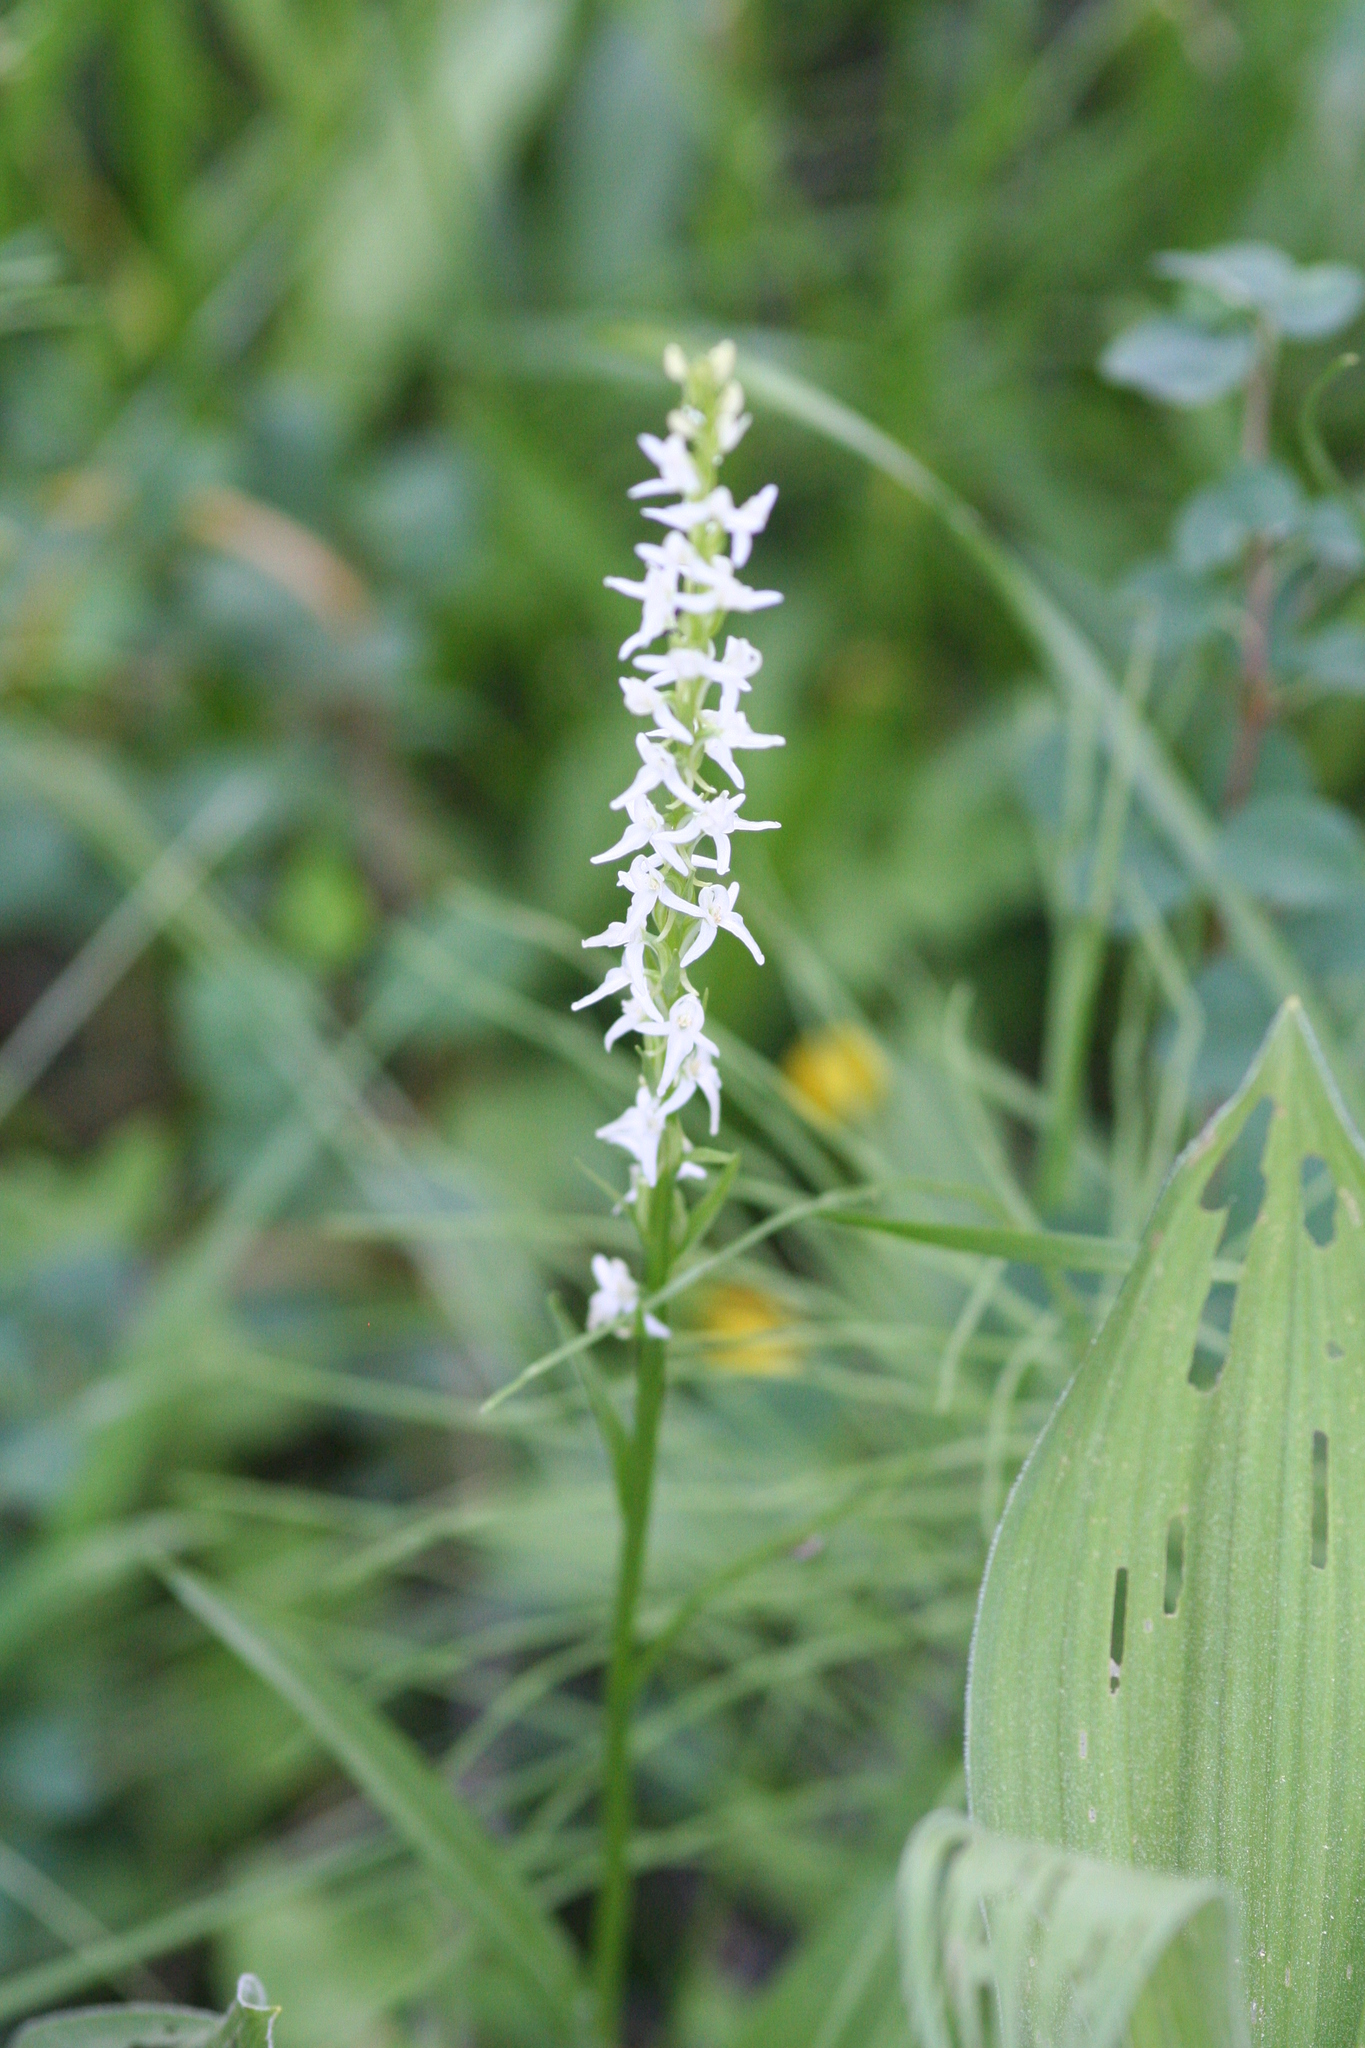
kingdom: Plantae
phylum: Tracheophyta
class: Liliopsida
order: Asparagales
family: Orchidaceae
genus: Platanthera
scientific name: Platanthera dilatata
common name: Bog candles
